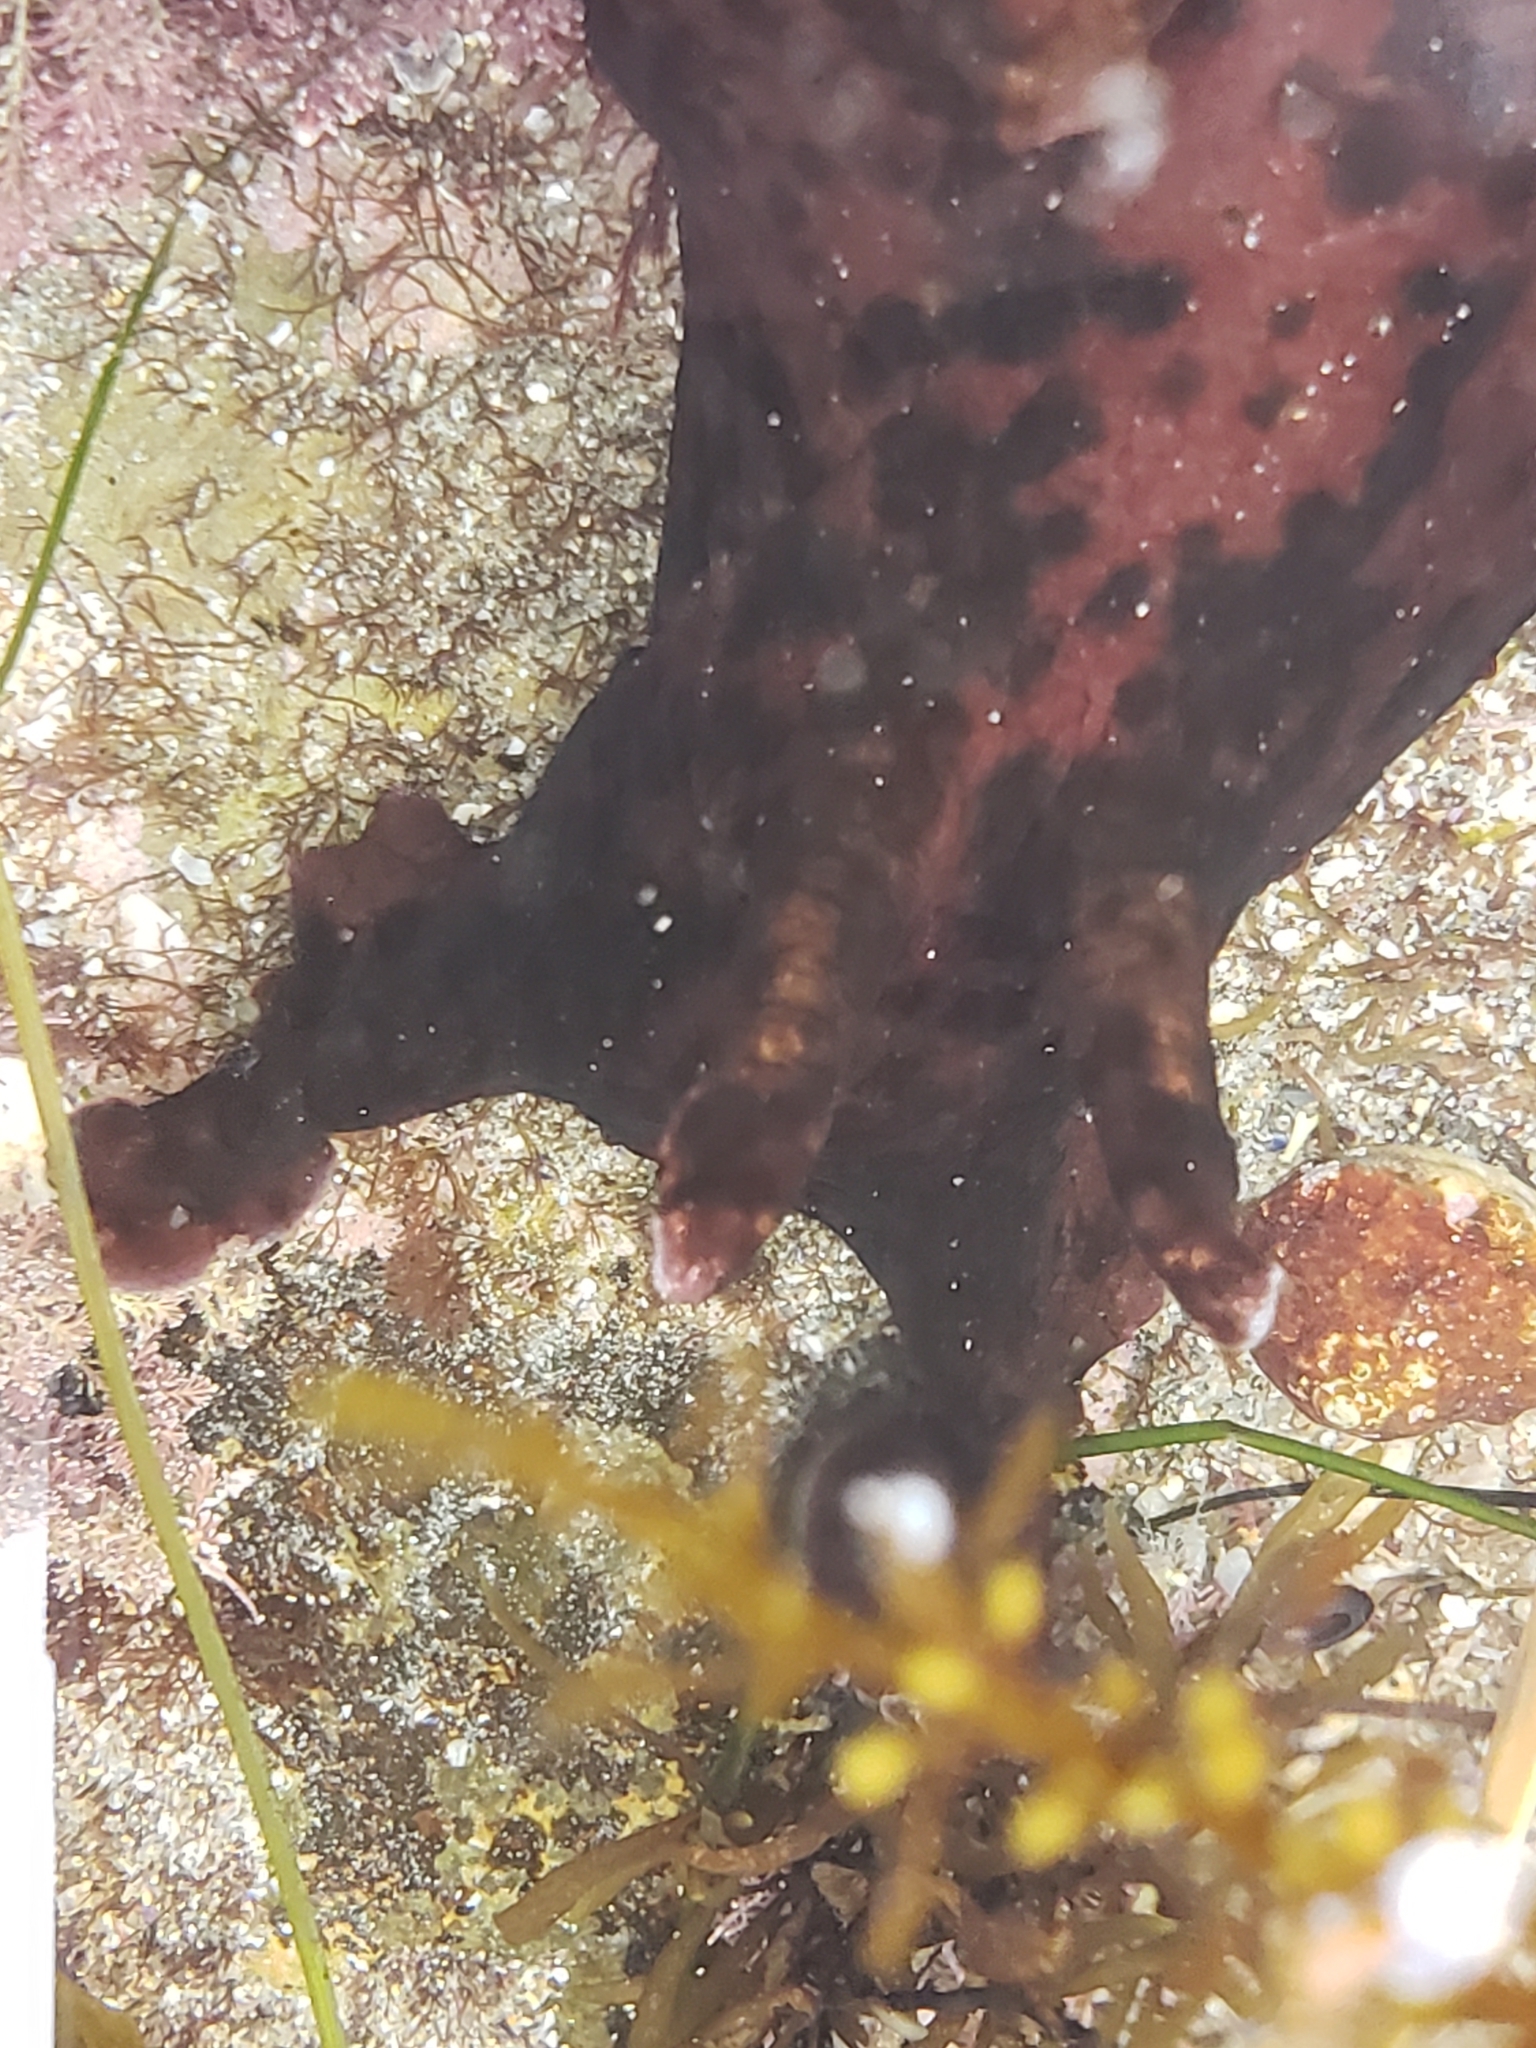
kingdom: Animalia
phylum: Mollusca
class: Gastropoda
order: Aplysiida
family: Aplysiidae
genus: Aplysia
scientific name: Aplysia californica
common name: California seahare
